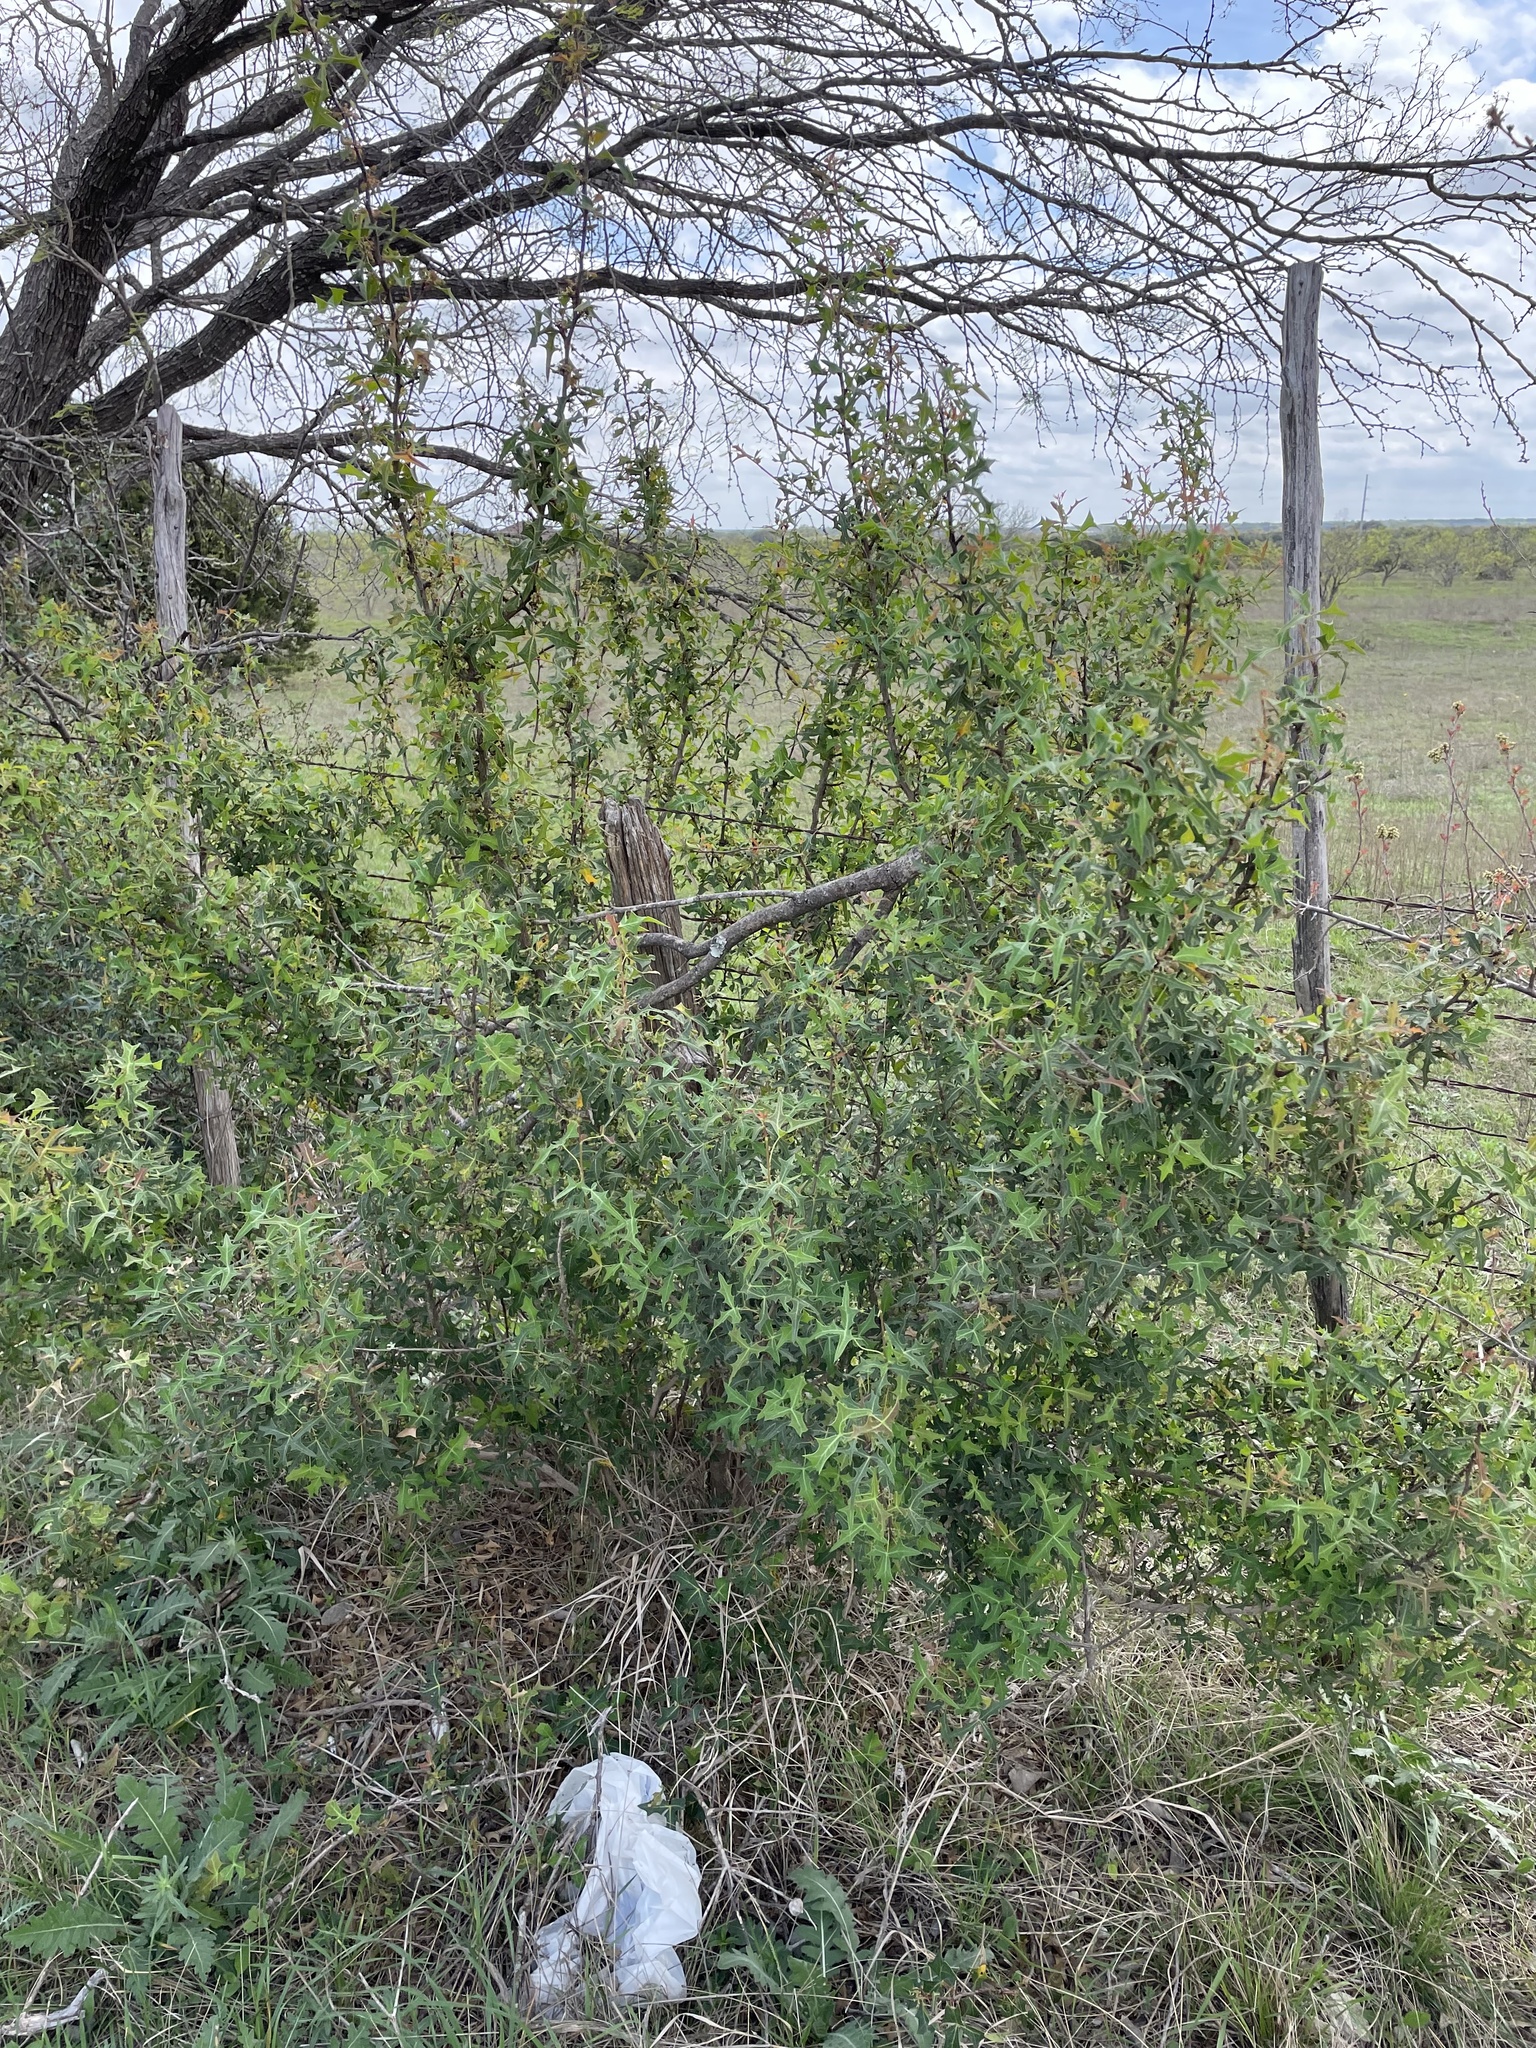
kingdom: Plantae
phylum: Tracheophyta
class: Magnoliopsida
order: Ranunculales
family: Berberidaceae
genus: Alloberberis
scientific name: Alloberberis trifoliolata
